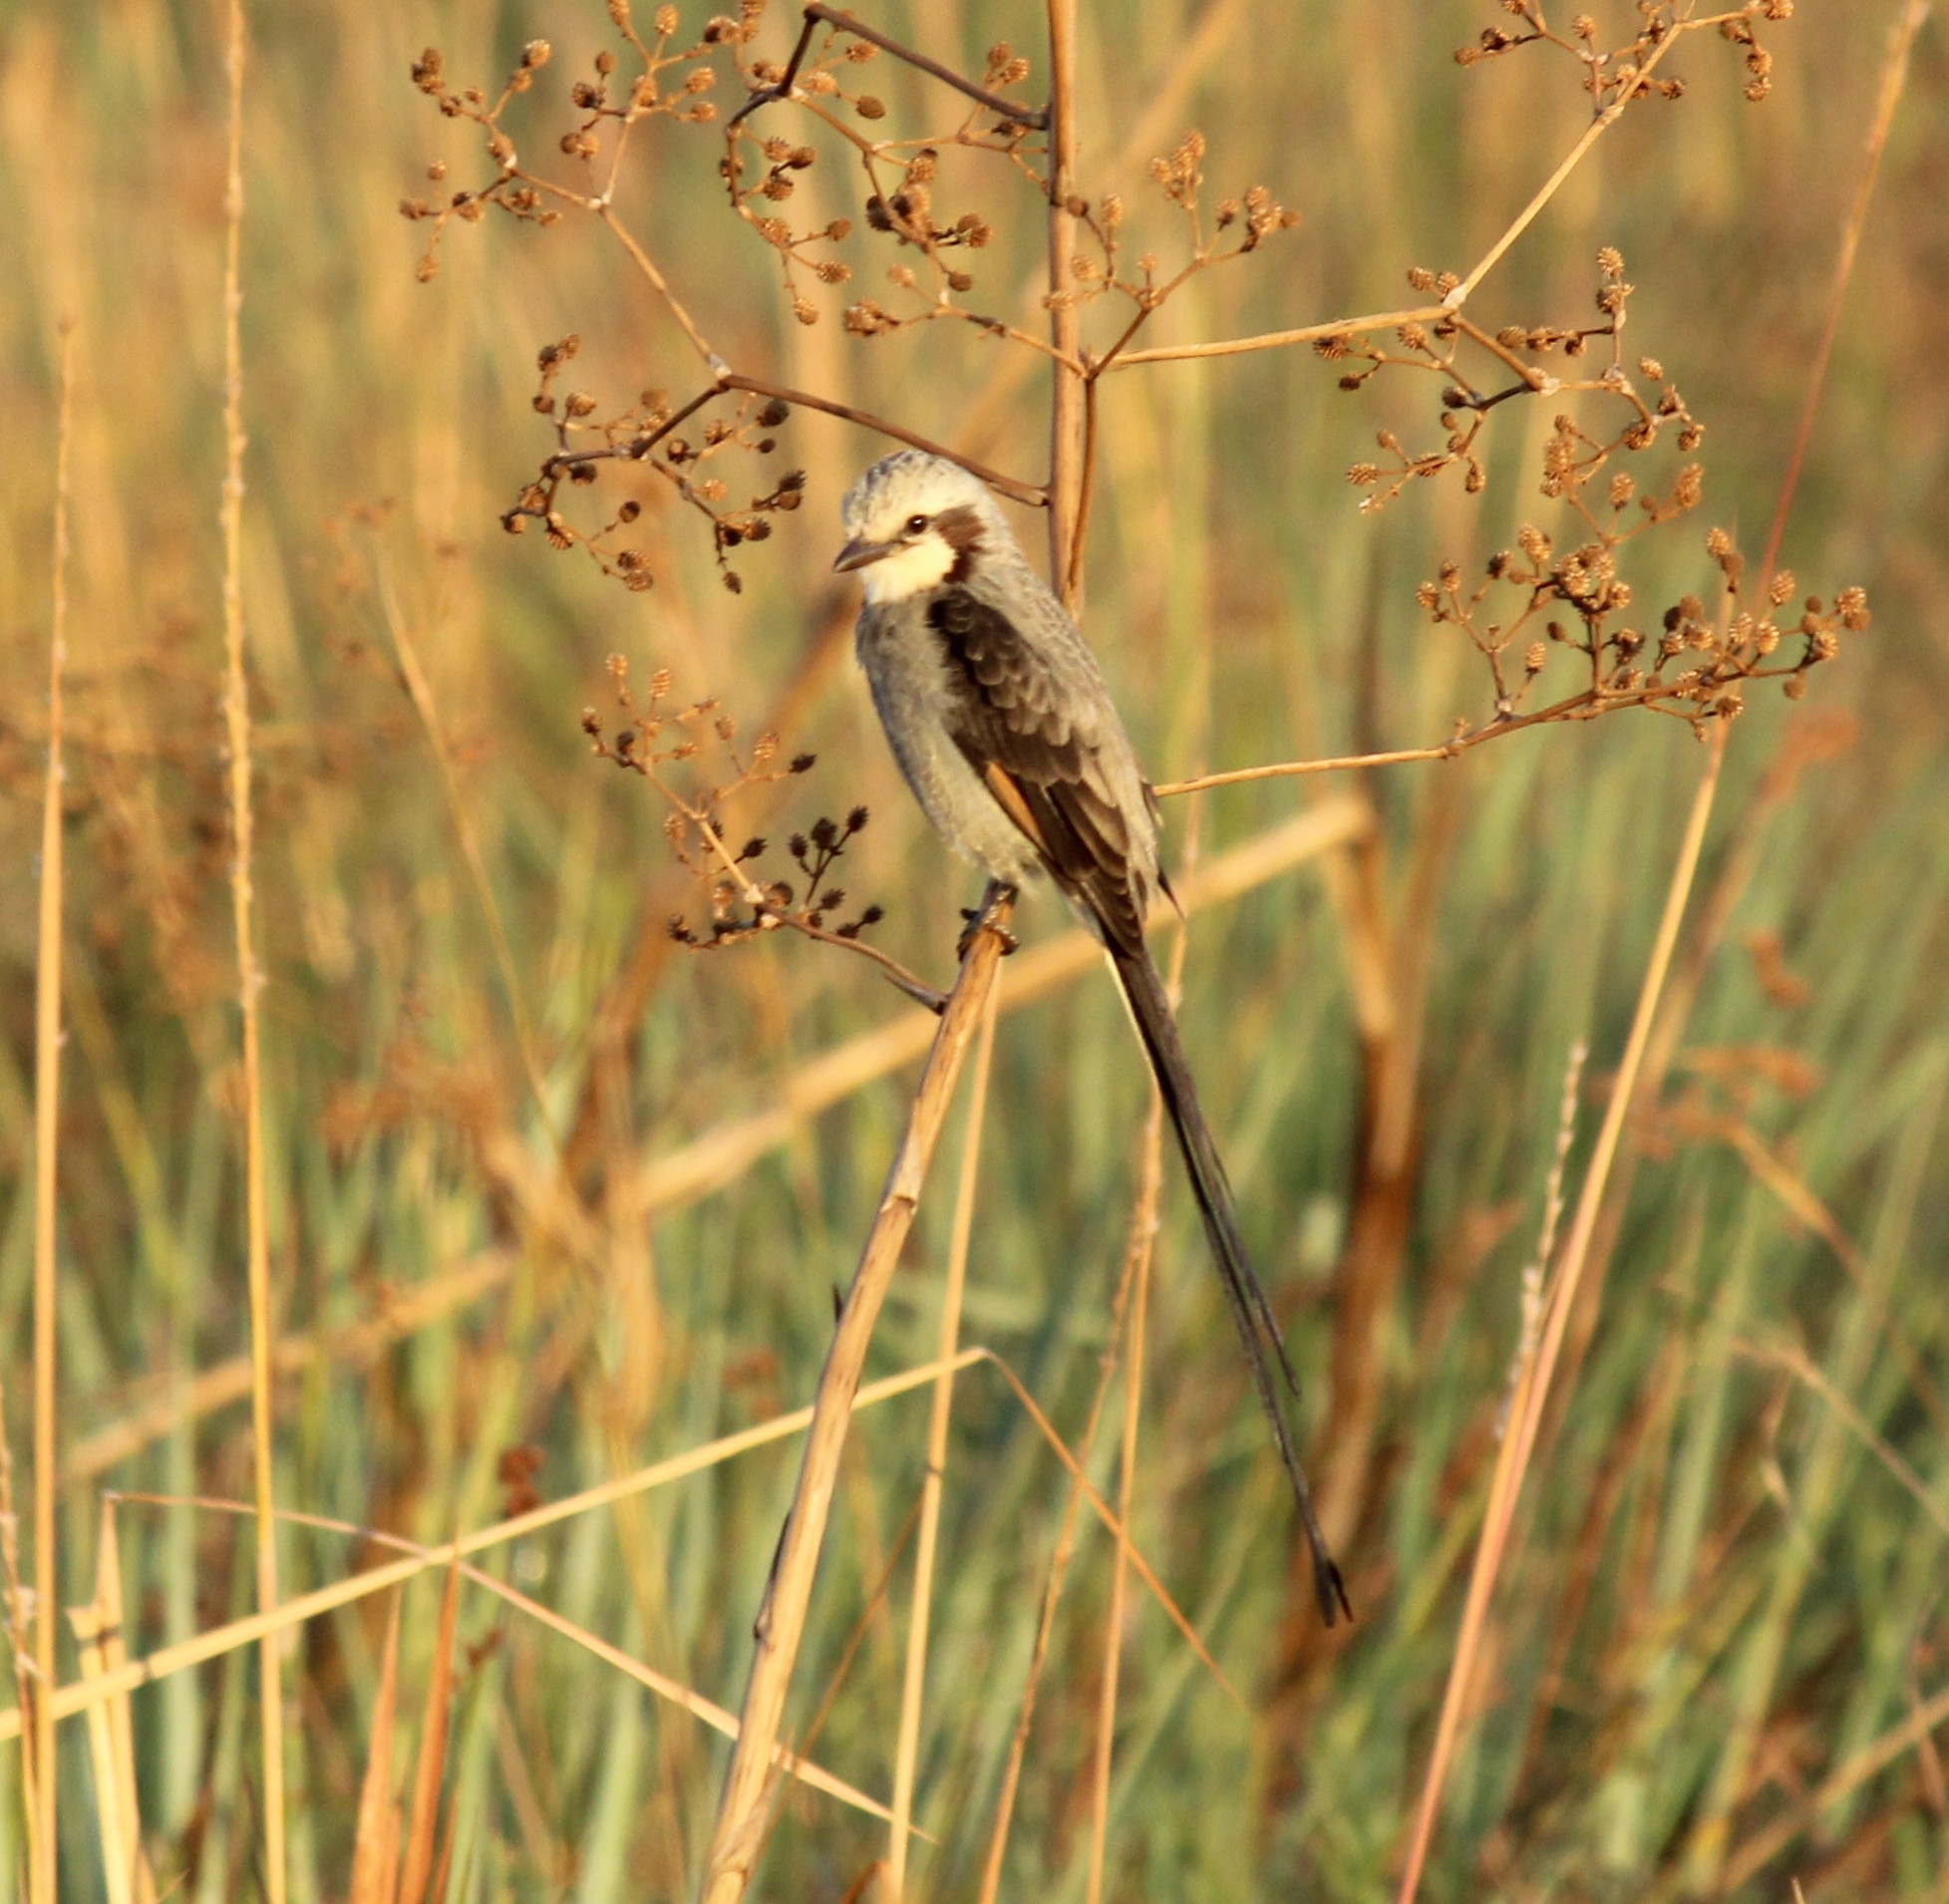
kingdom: Animalia
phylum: Chordata
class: Aves
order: Passeriformes
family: Tyrannidae
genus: Gubernetes
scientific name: Gubernetes yetapa
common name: Streamer-tailed tyrant
